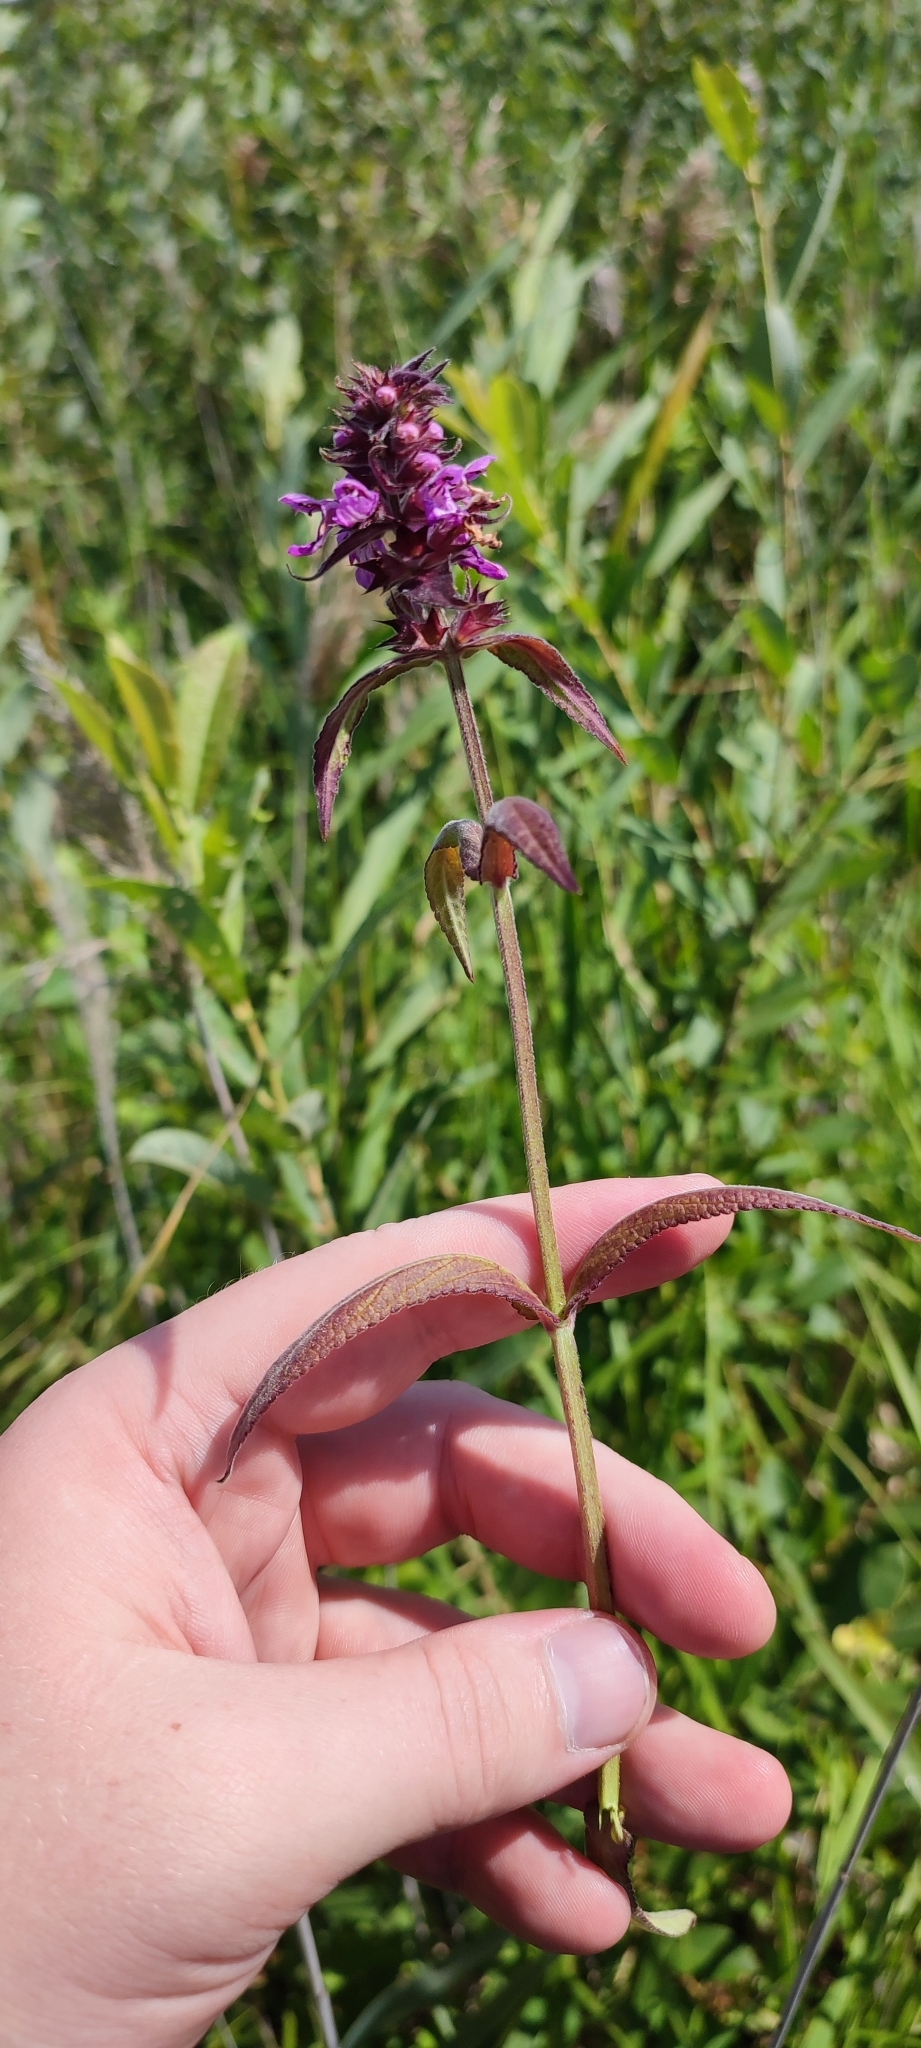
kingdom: Plantae
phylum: Tracheophyta
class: Magnoliopsida
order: Lamiales
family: Lamiaceae
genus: Stachys
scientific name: Stachys palustris
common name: Marsh woundwort
